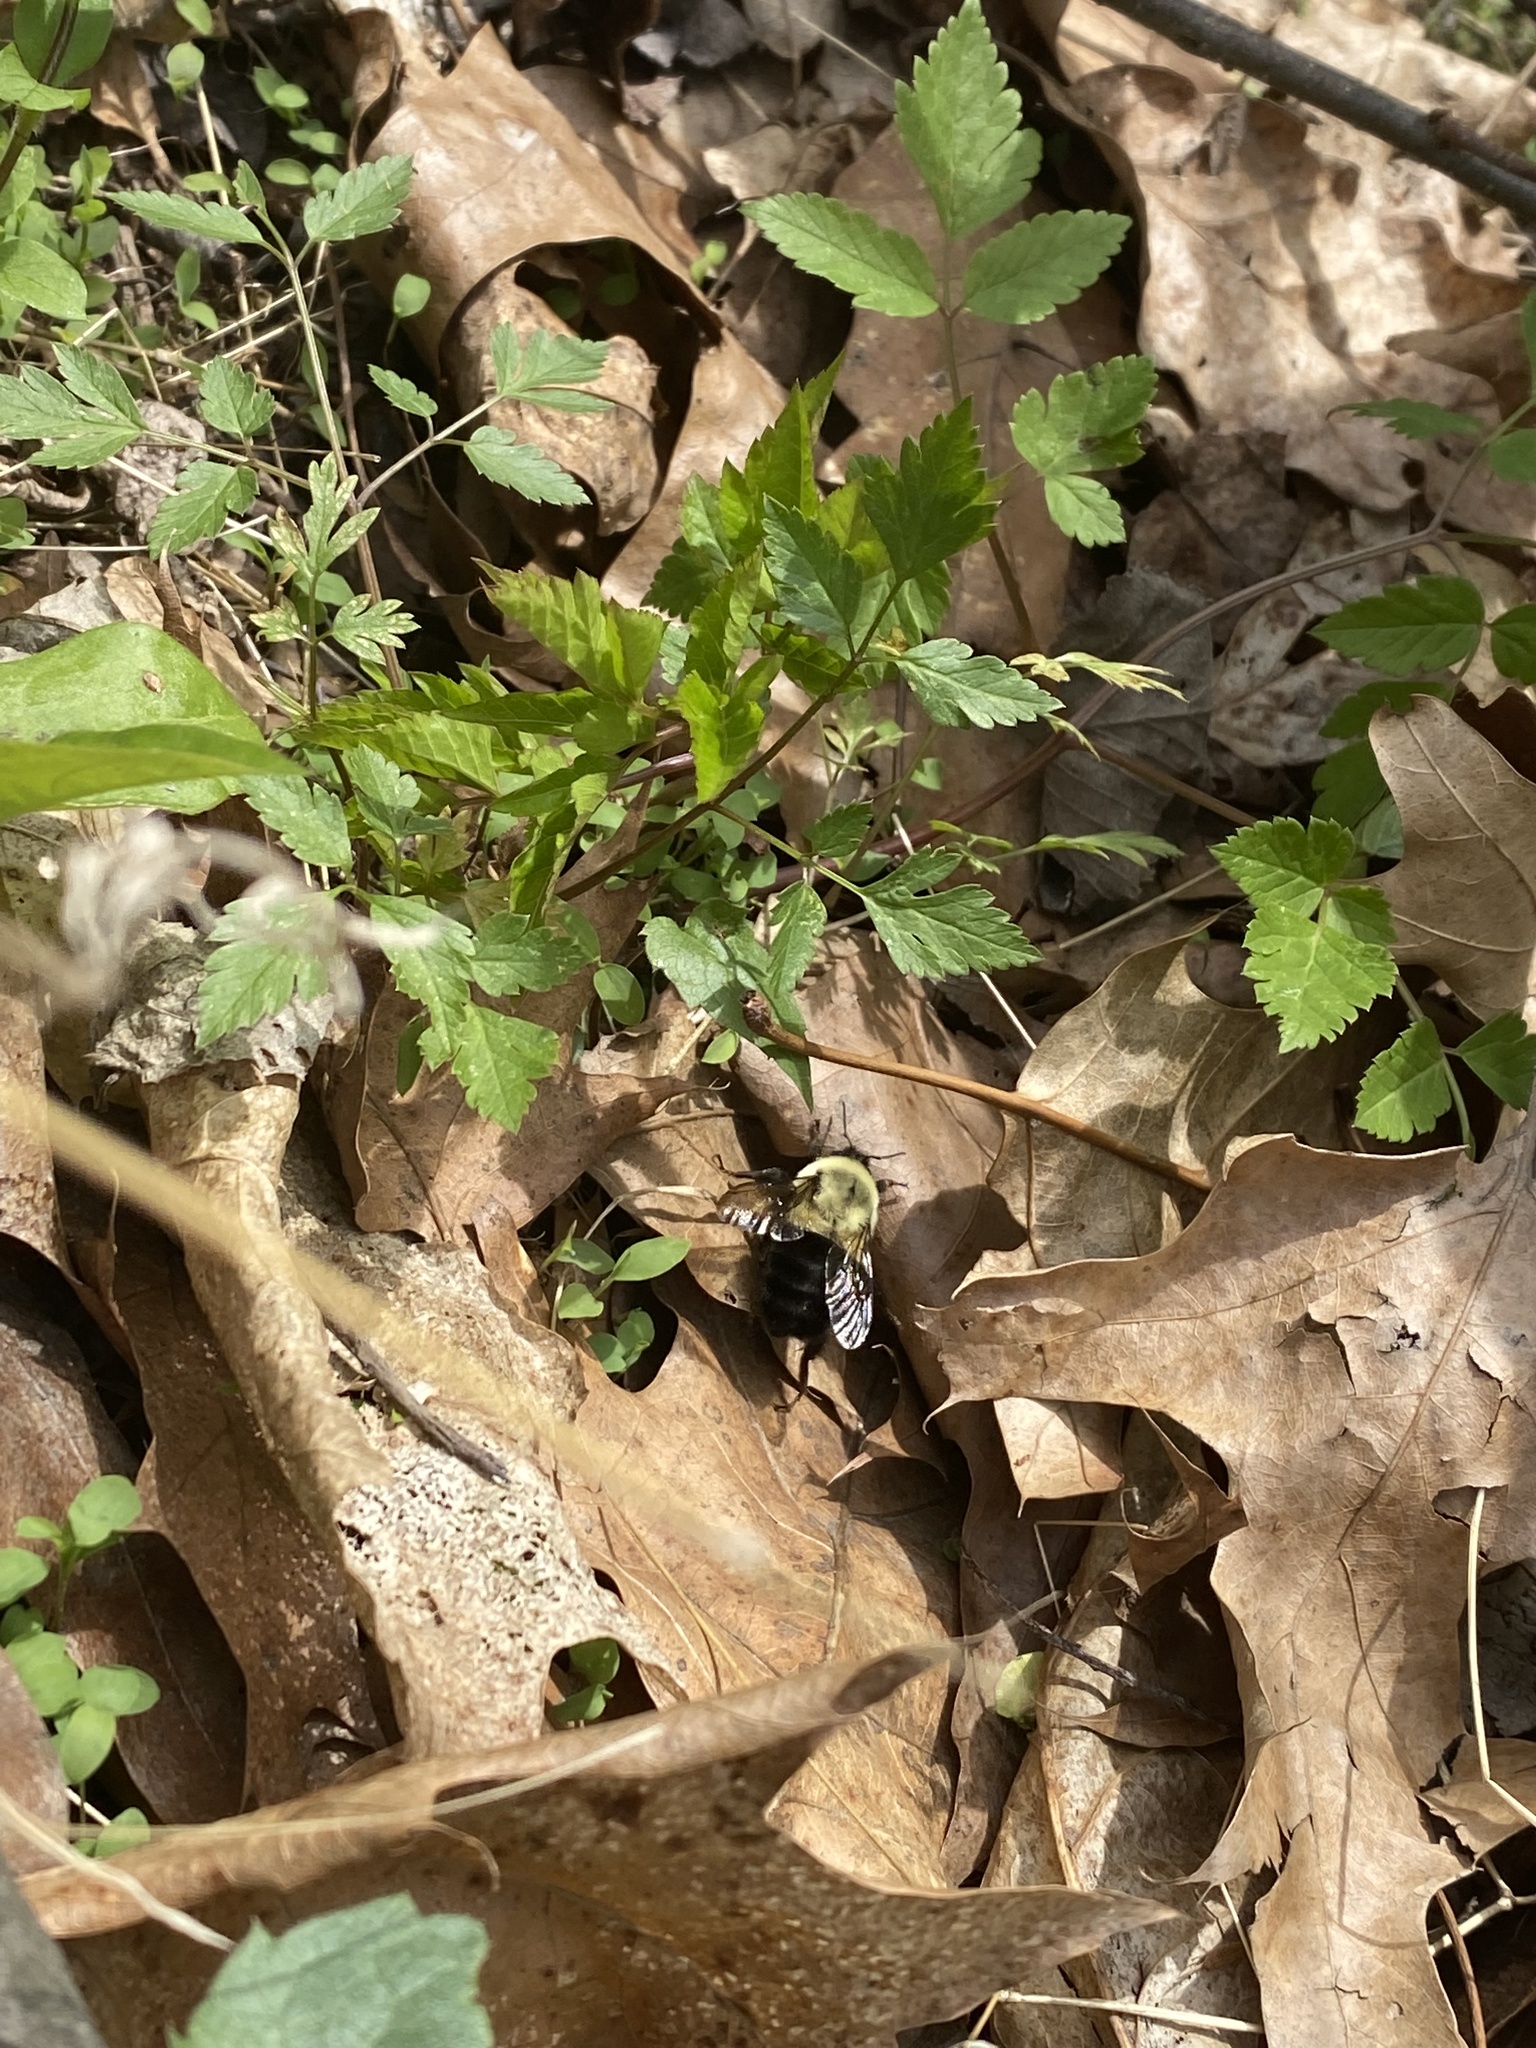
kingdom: Animalia
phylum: Arthropoda
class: Insecta
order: Hymenoptera
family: Apidae
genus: Bombus
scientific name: Bombus impatiens
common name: Common eastern bumble bee
